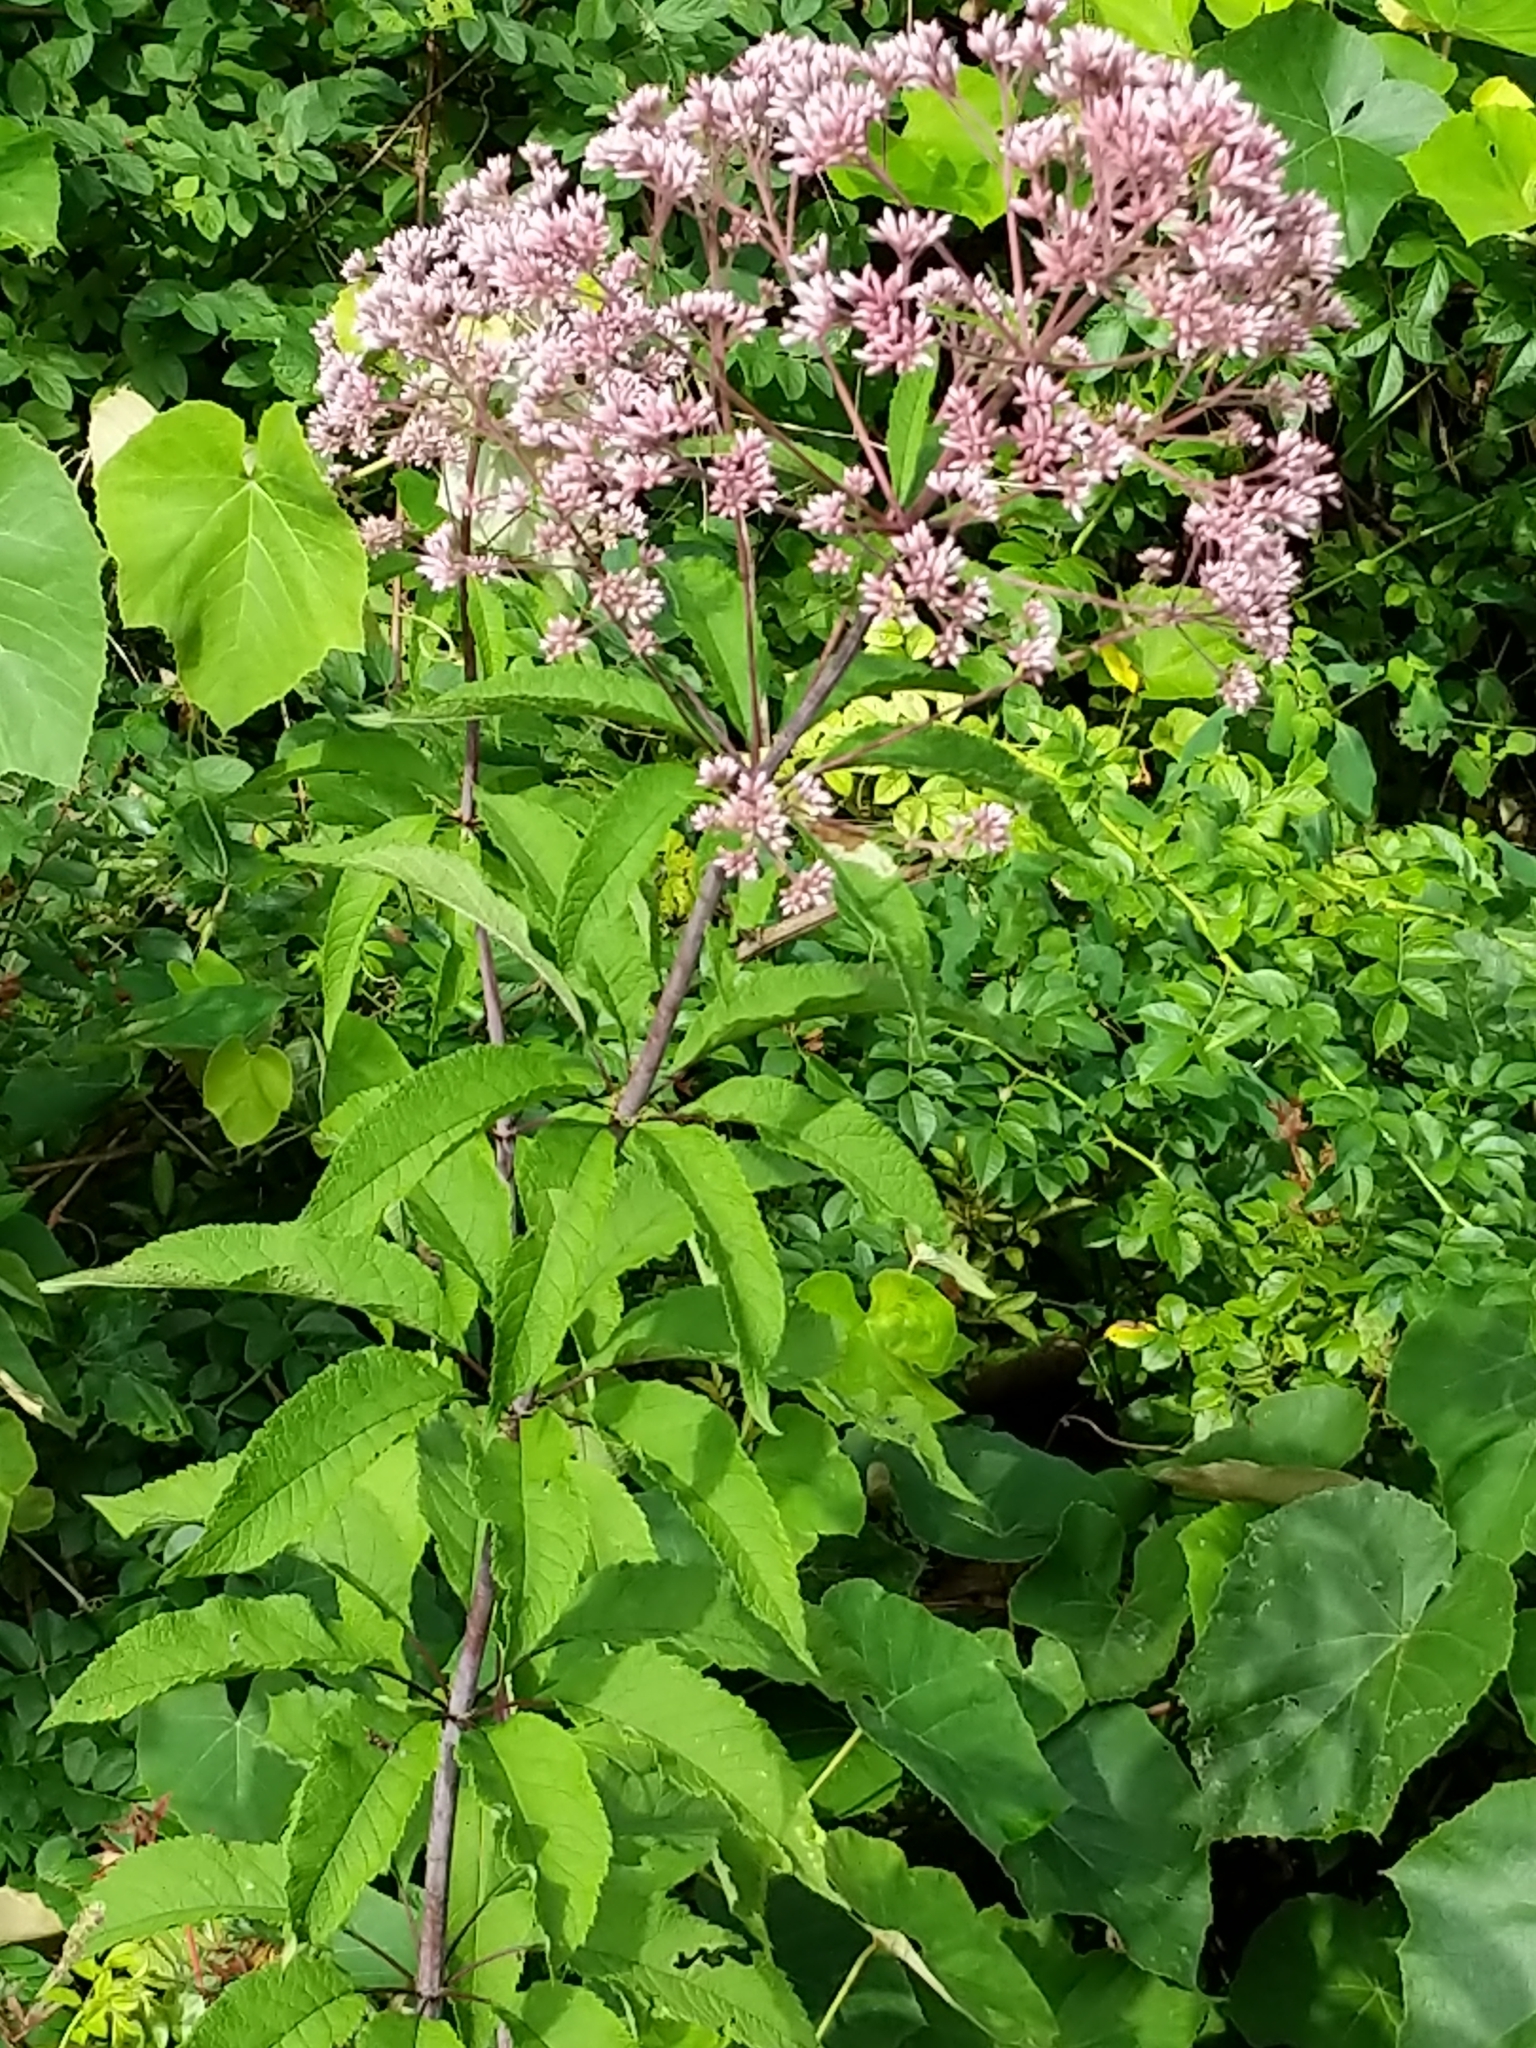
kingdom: Plantae
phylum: Tracheophyta
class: Magnoliopsida
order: Asterales
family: Asteraceae
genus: Eutrochium
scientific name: Eutrochium fistulosum
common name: Trumpetweed
